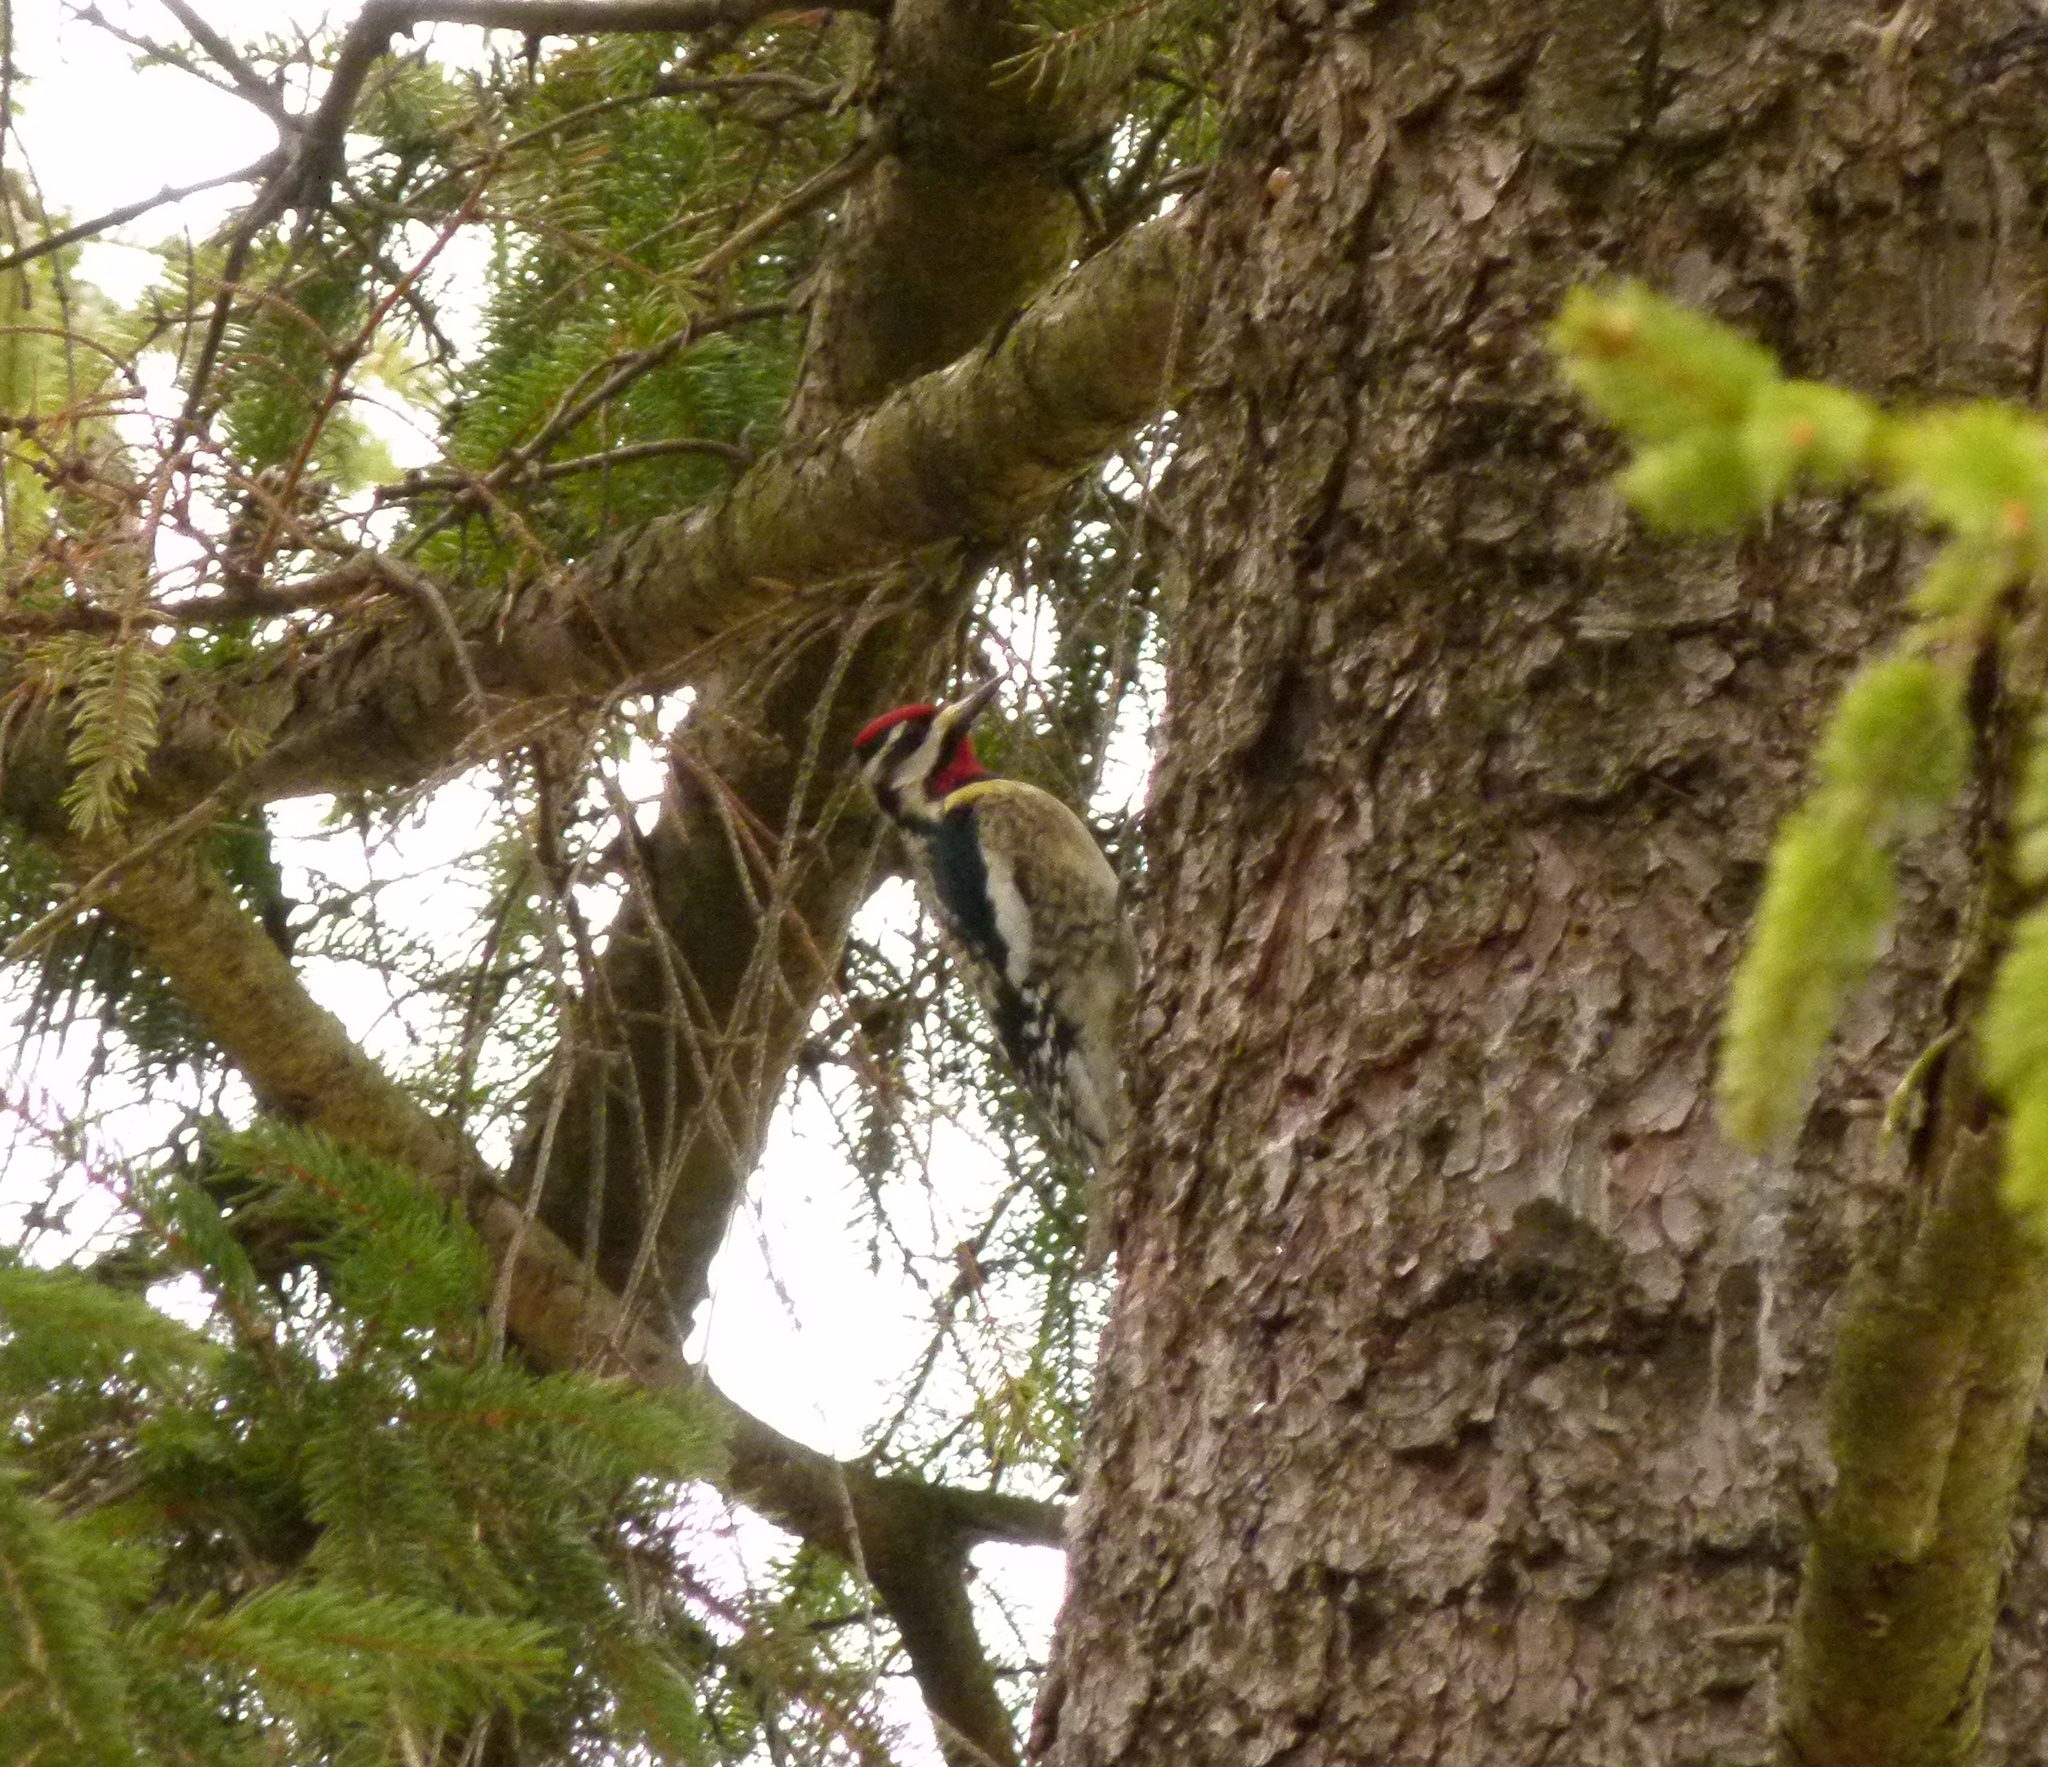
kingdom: Animalia
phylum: Chordata
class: Aves
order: Piciformes
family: Picidae
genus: Sphyrapicus
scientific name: Sphyrapicus varius
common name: Yellow-bellied sapsucker
